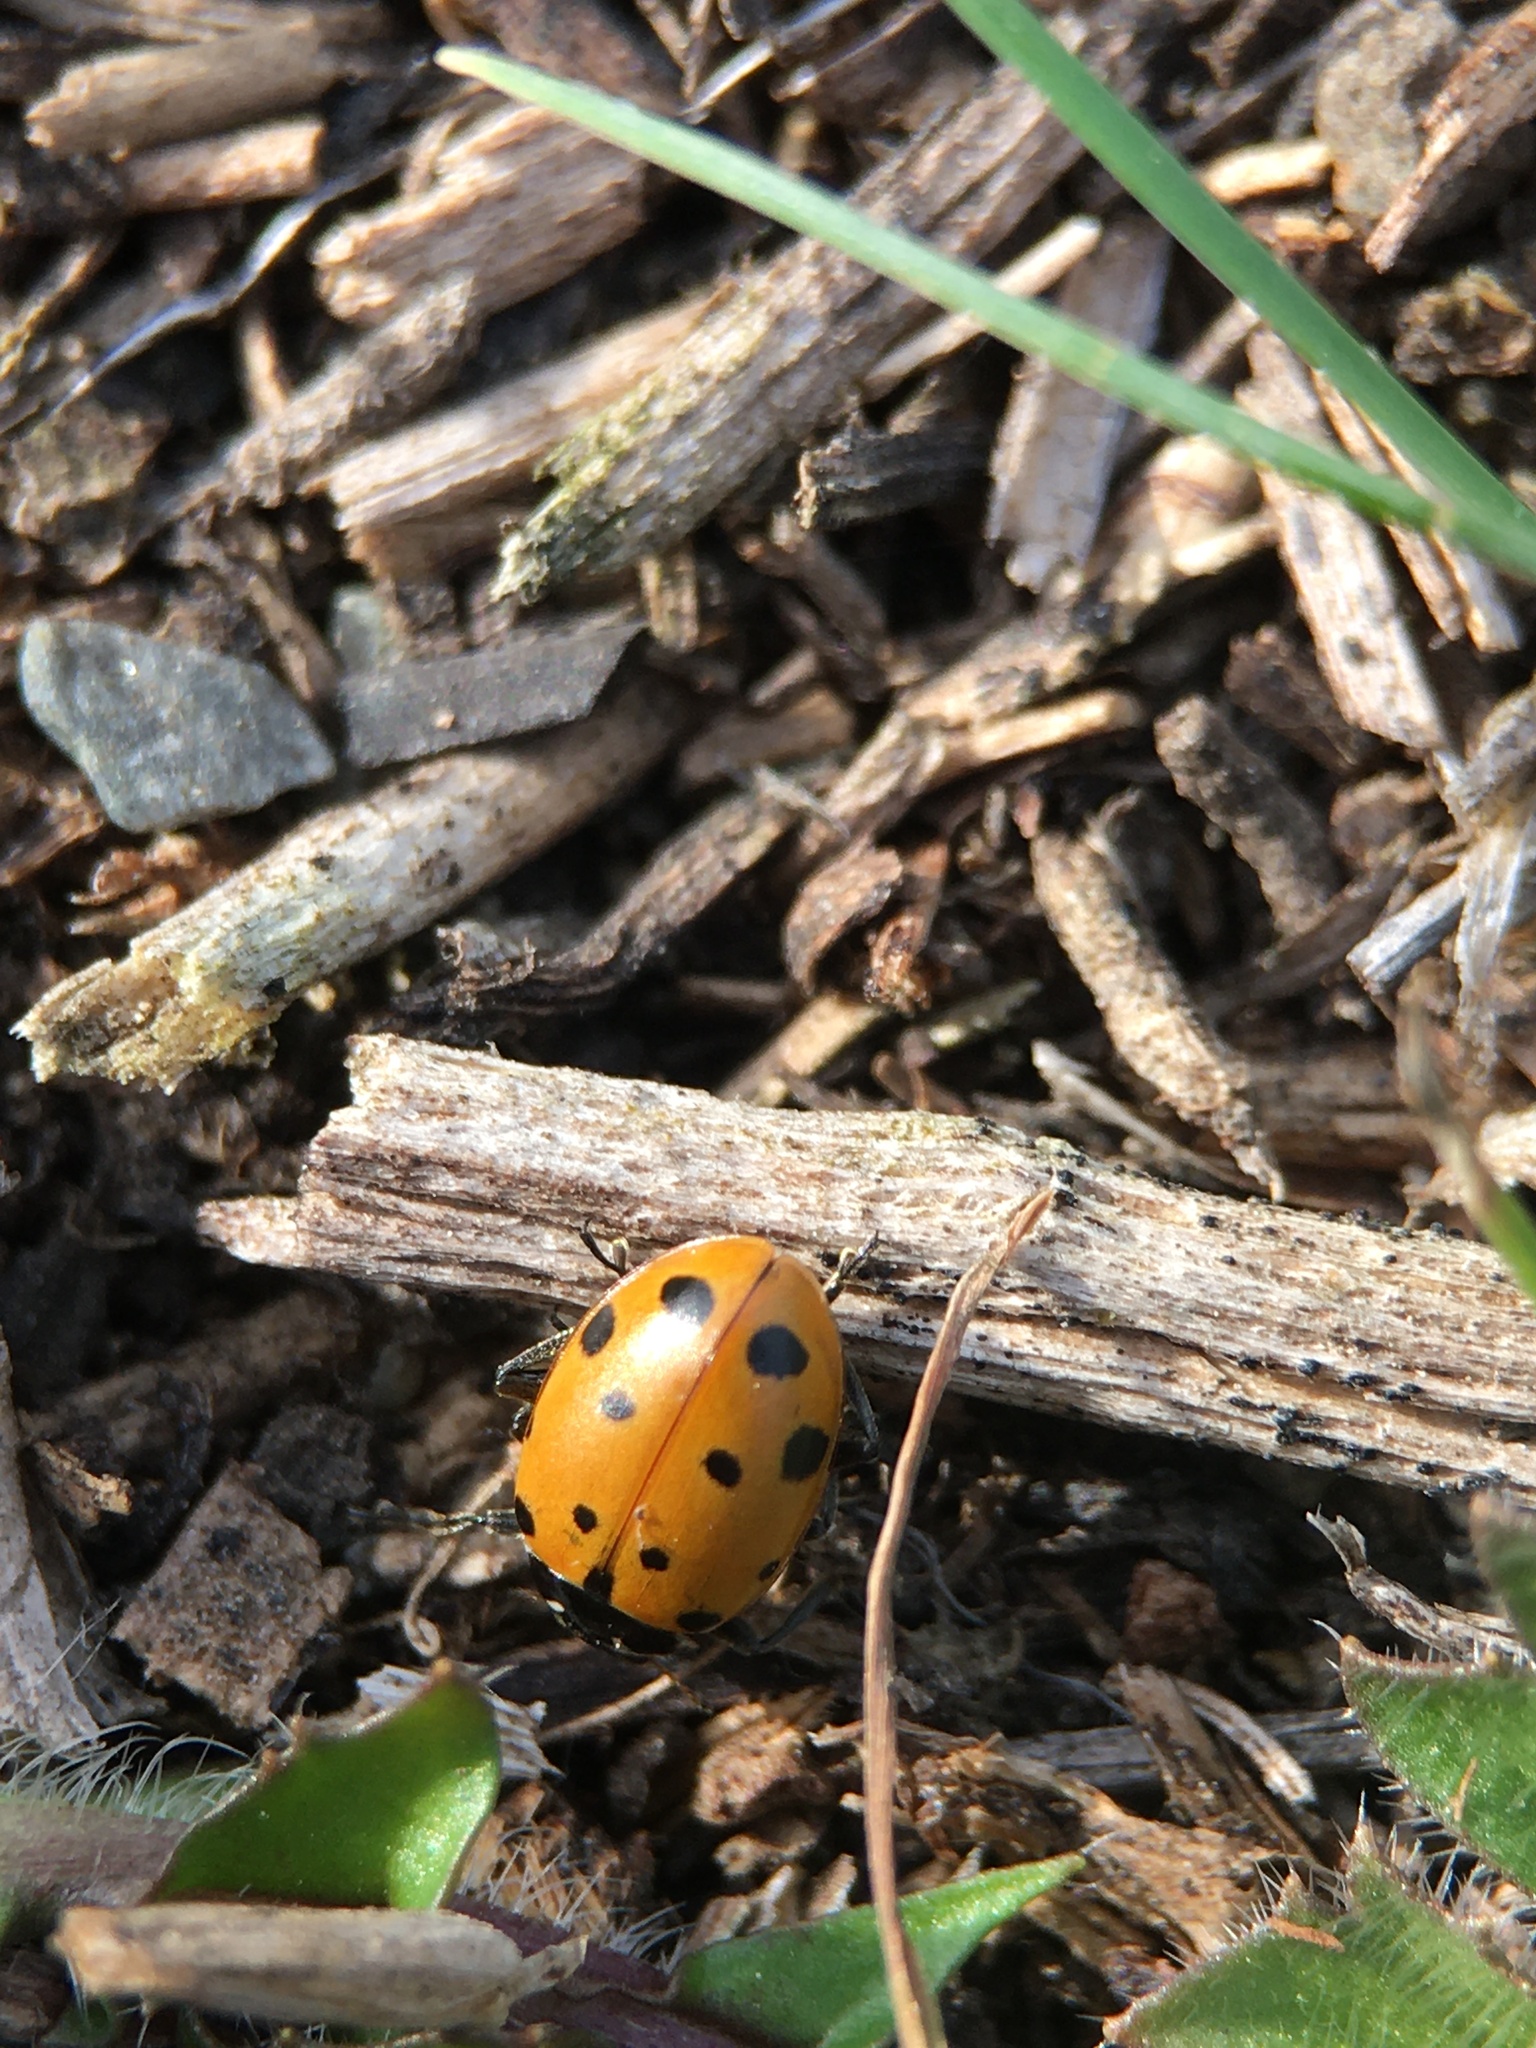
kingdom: Animalia
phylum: Arthropoda
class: Insecta
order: Coleoptera
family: Coccinellidae
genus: Hippodamia
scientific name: Hippodamia convergens
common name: Convergent lady beetle
